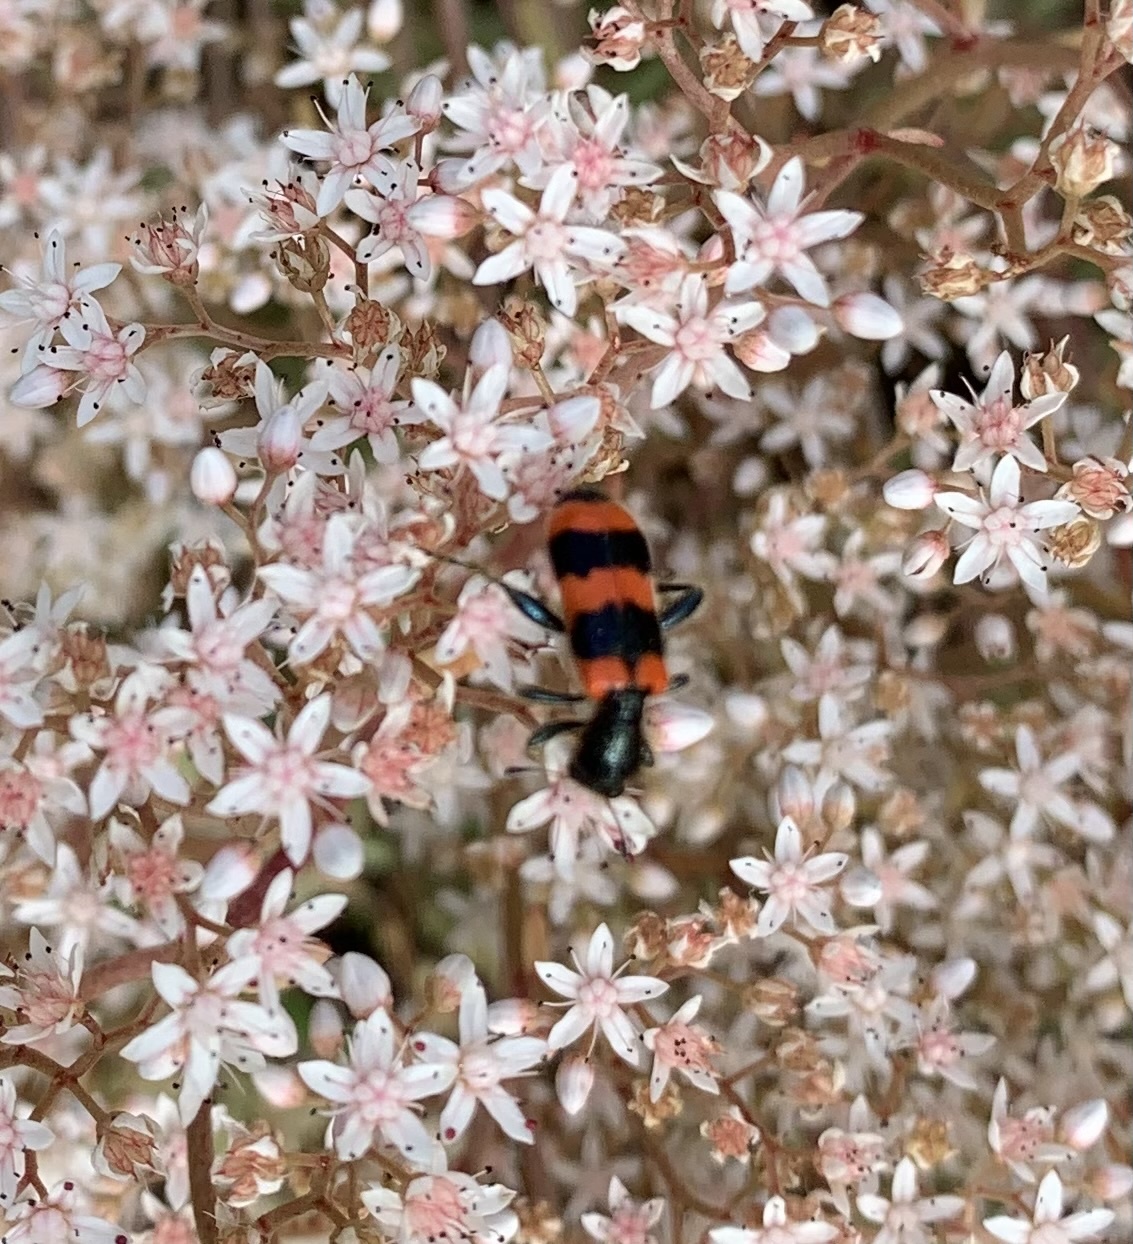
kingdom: Animalia
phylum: Arthropoda
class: Insecta
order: Coleoptera
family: Cleridae
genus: Trichodes
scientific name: Trichodes apiarius
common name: Bee-eating beetle
